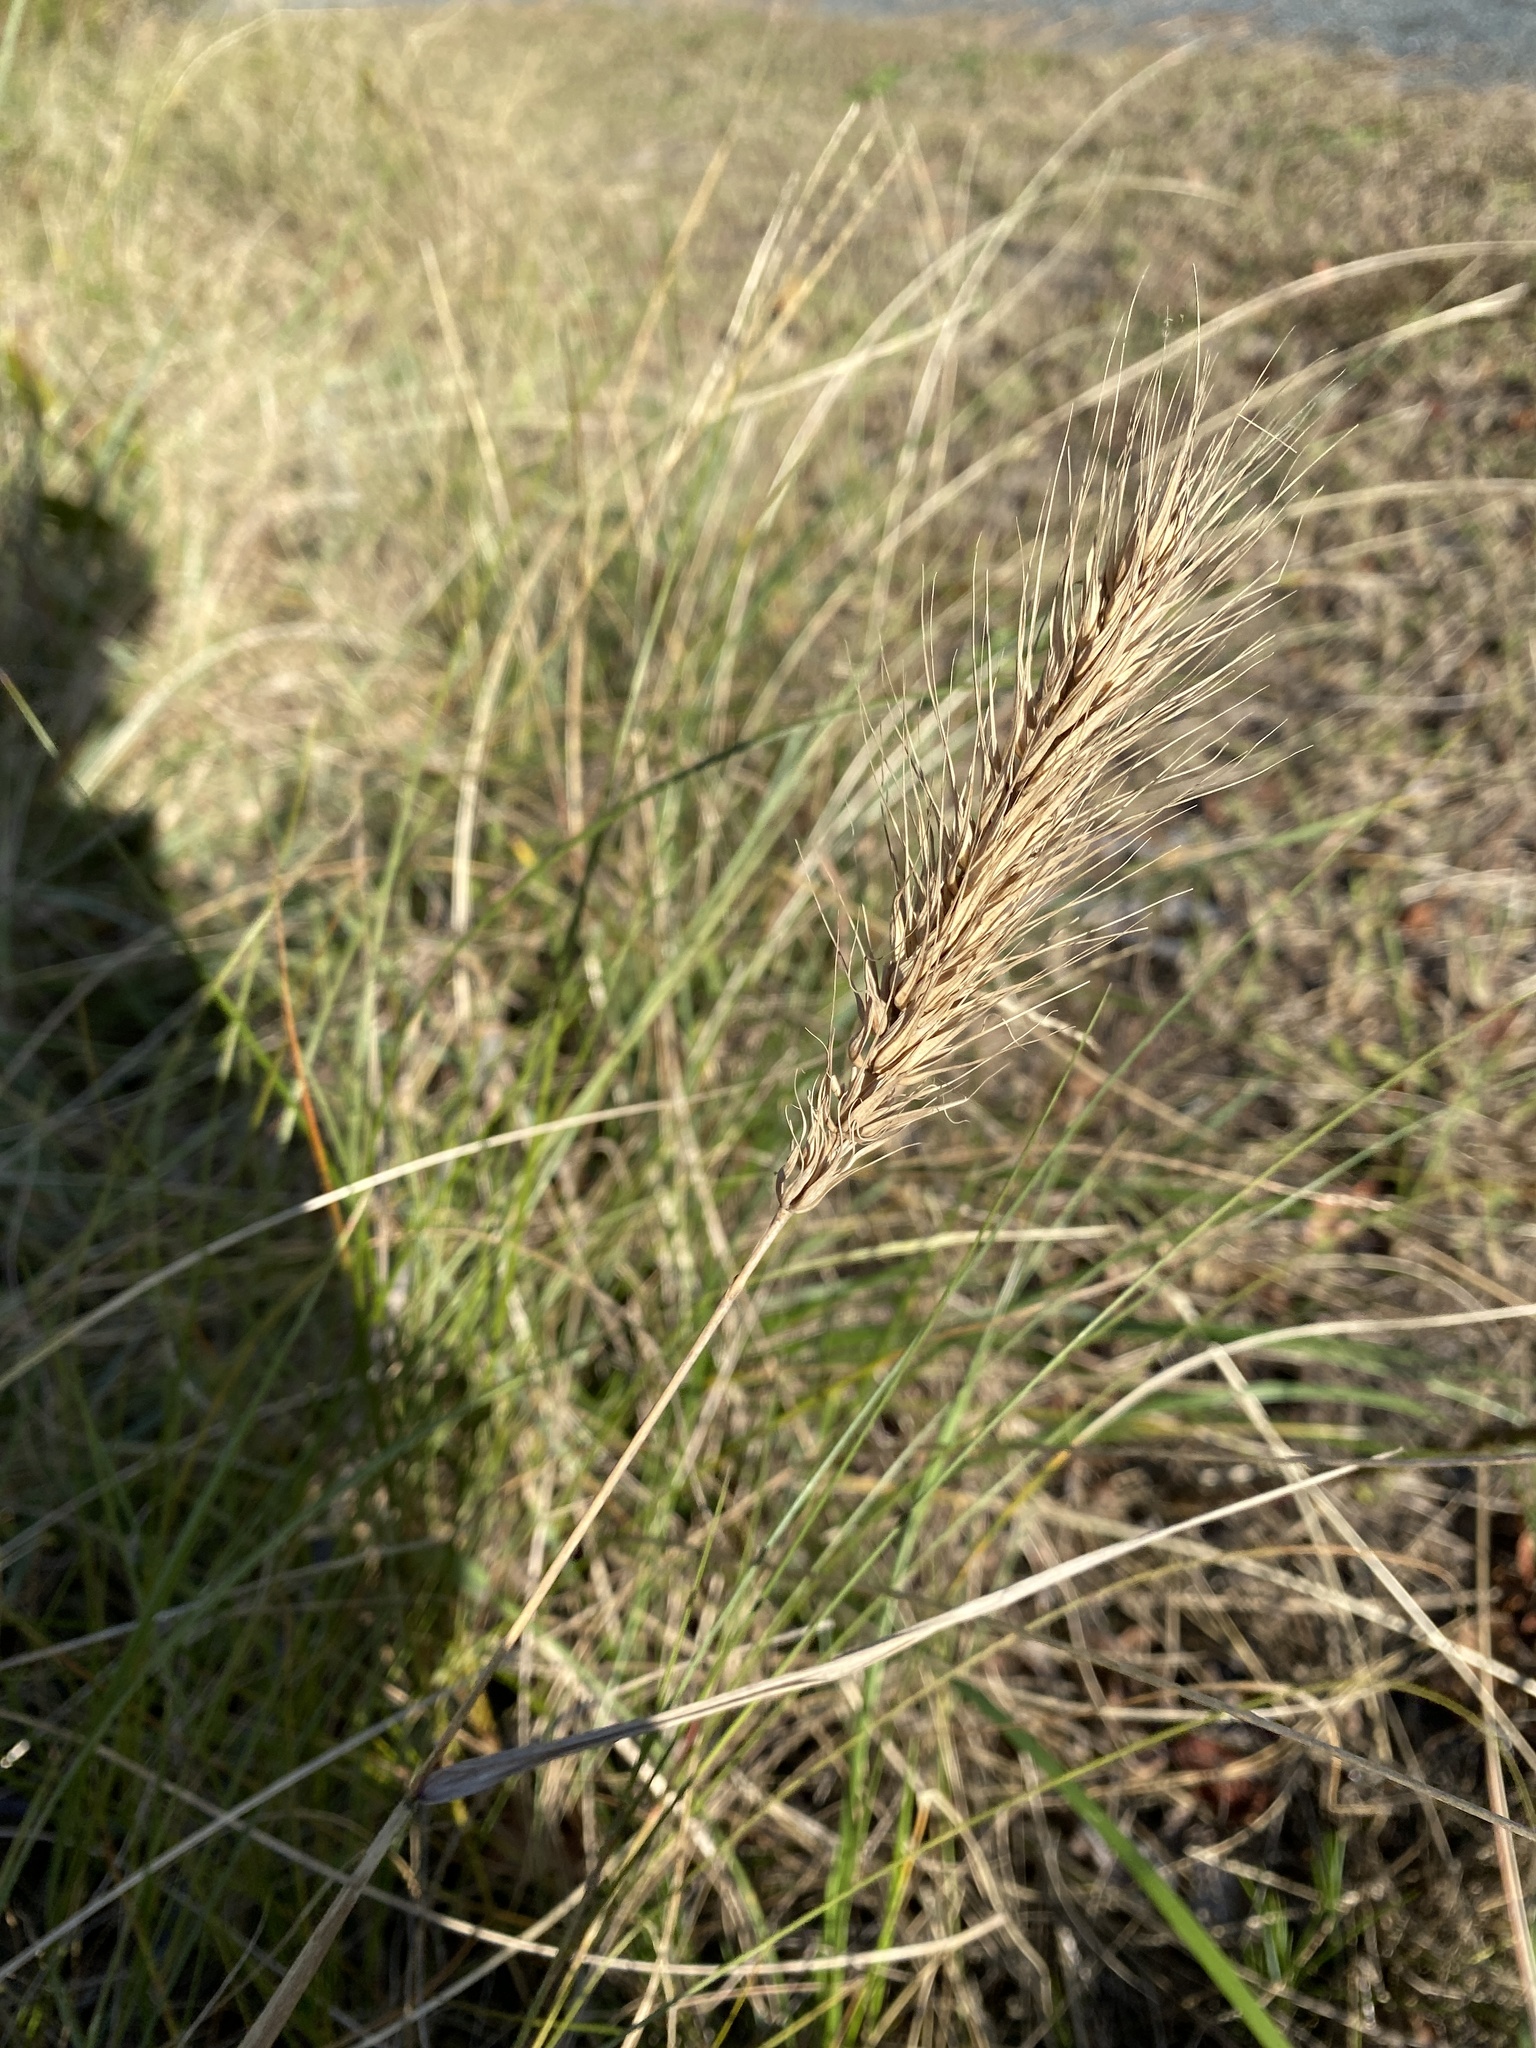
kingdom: Plantae
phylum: Tracheophyta
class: Liliopsida
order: Poales
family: Poaceae
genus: Elymus
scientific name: Elymus virginicus
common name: Common eastern wildrye
